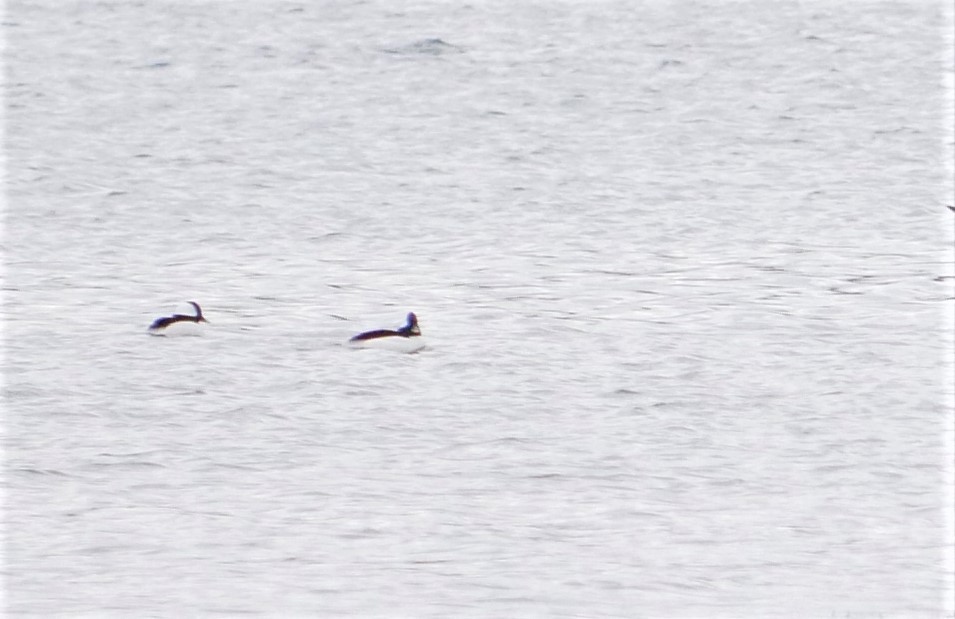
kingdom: Animalia
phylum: Chordata
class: Aves
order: Anseriformes
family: Anatidae
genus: Bucephala
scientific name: Bucephala albeola
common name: Bufflehead
